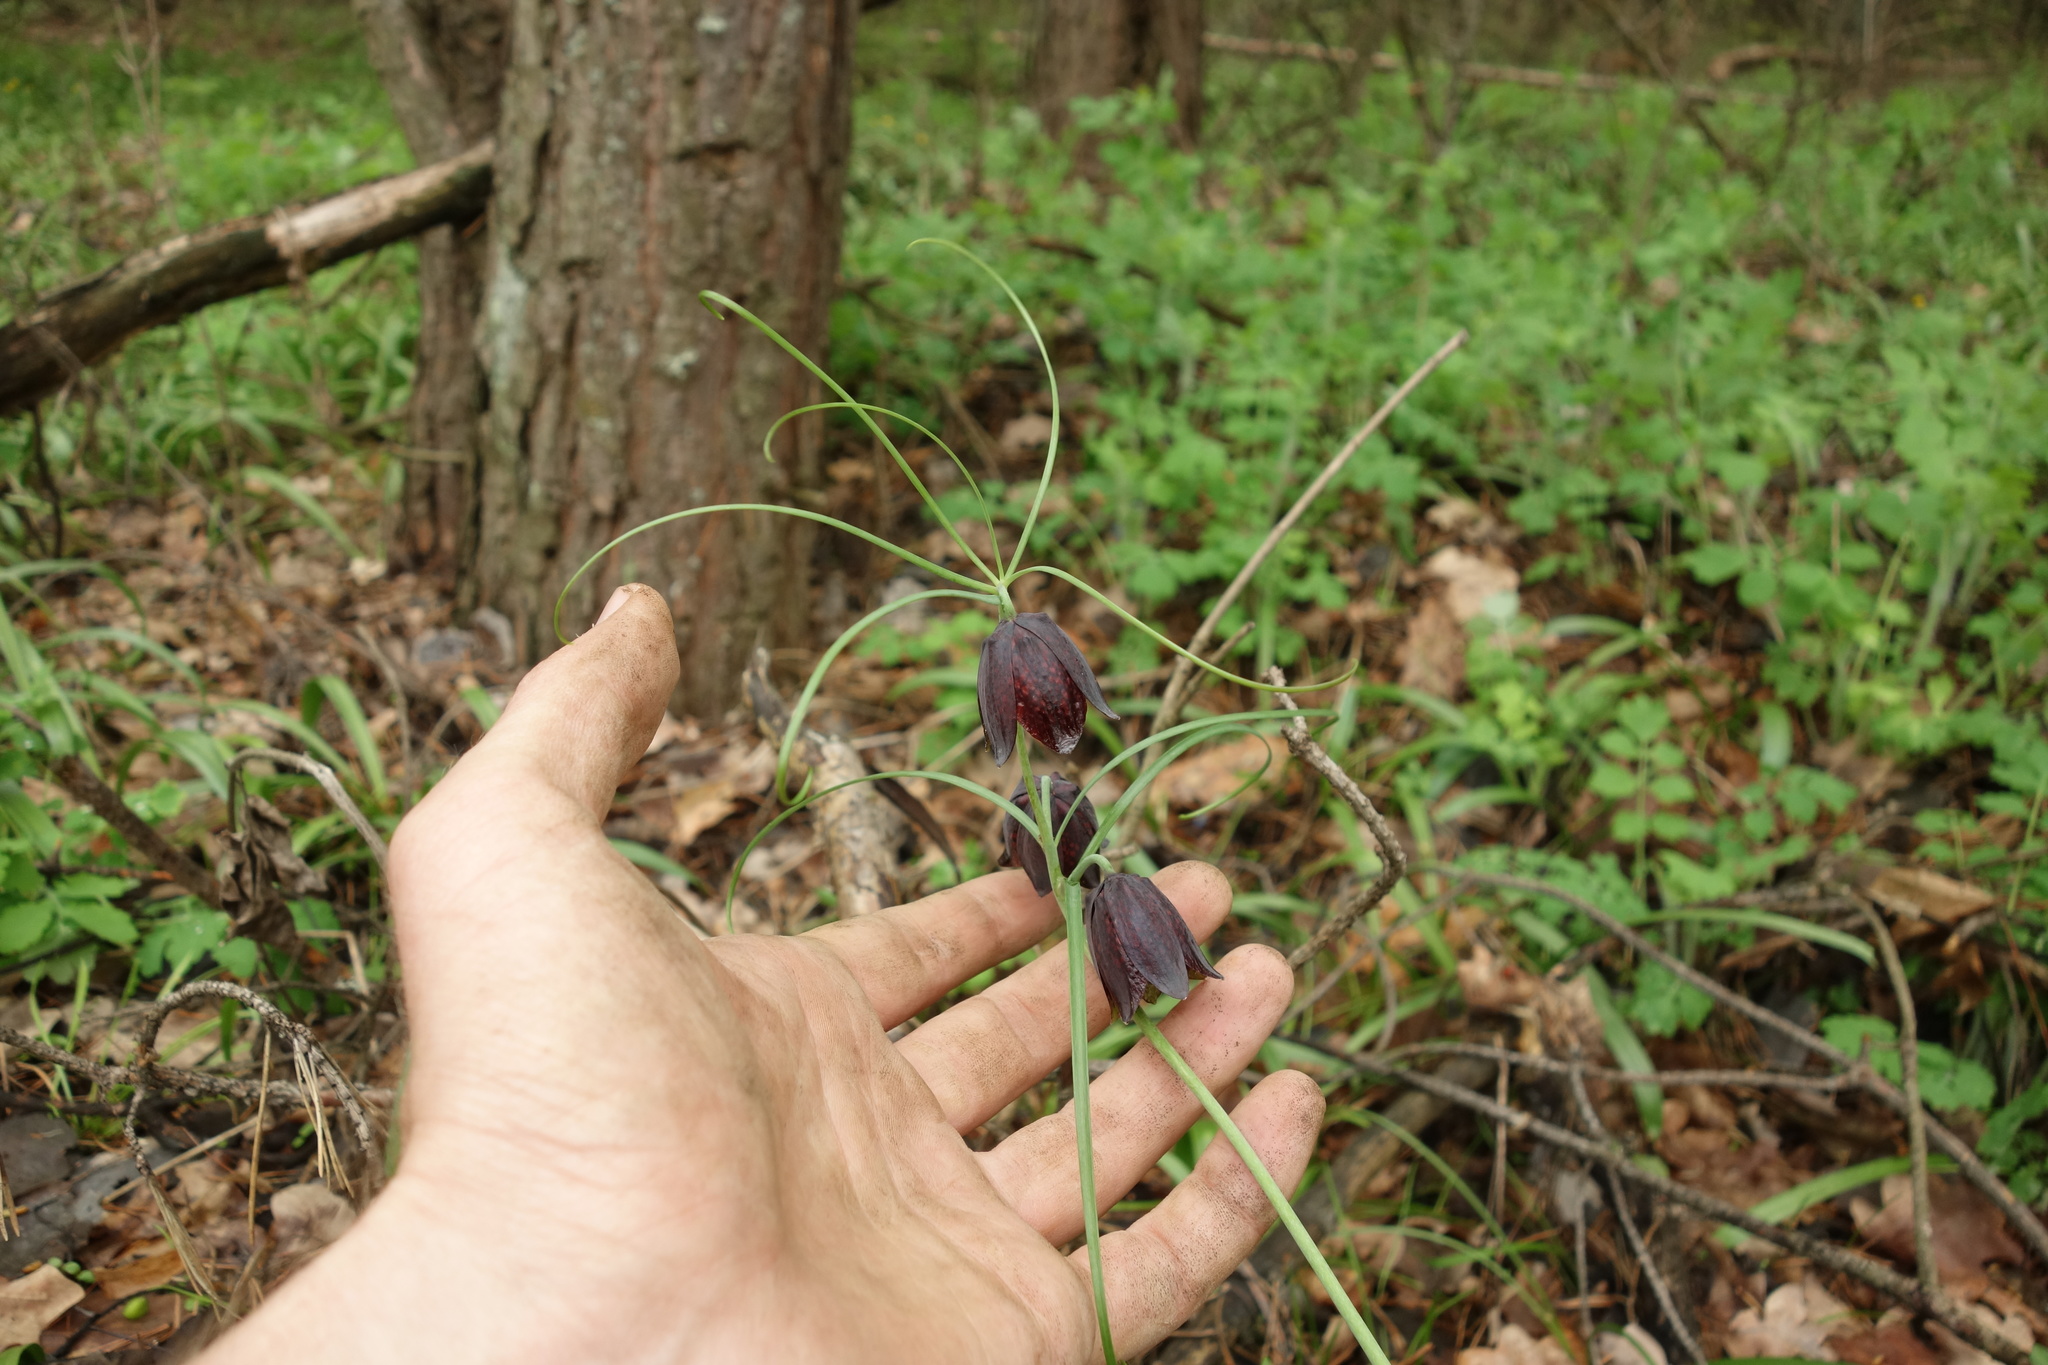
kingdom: Plantae
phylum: Tracheophyta
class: Liliopsida
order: Liliales
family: Liliaceae
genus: Fritillaria
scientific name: Fritillaria ruthenica
